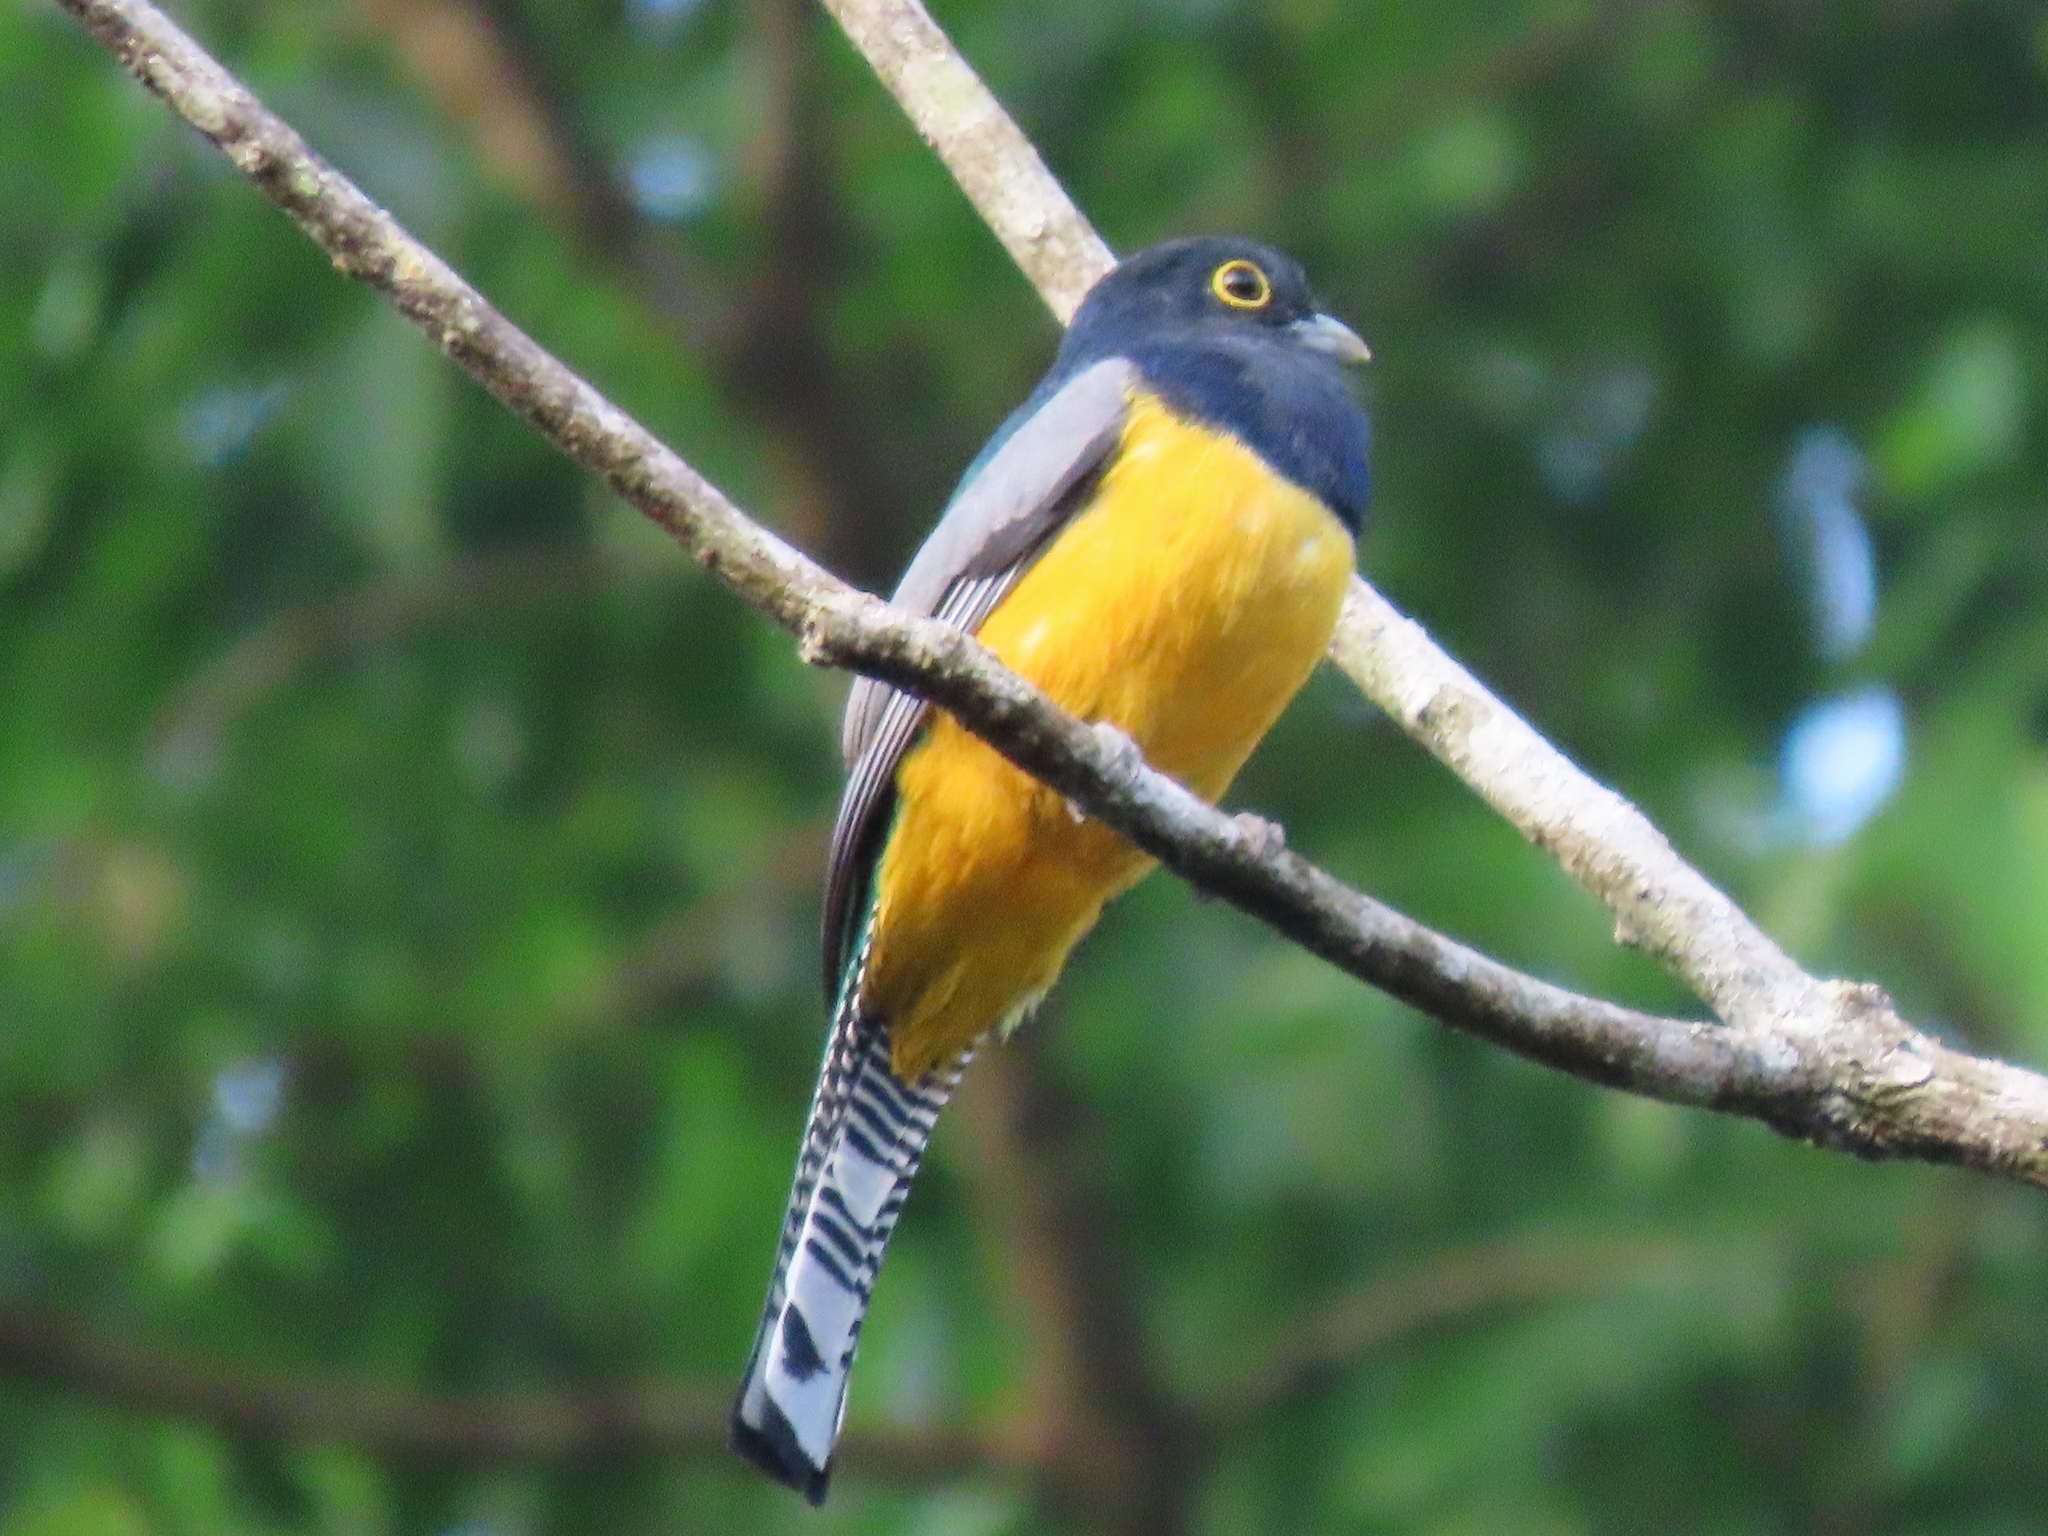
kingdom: Animalia
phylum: Chordata
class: Aves
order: Trogoniformes
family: Trogonidae
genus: Trogon
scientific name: Trogon caligatus
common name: Gartered trogon
